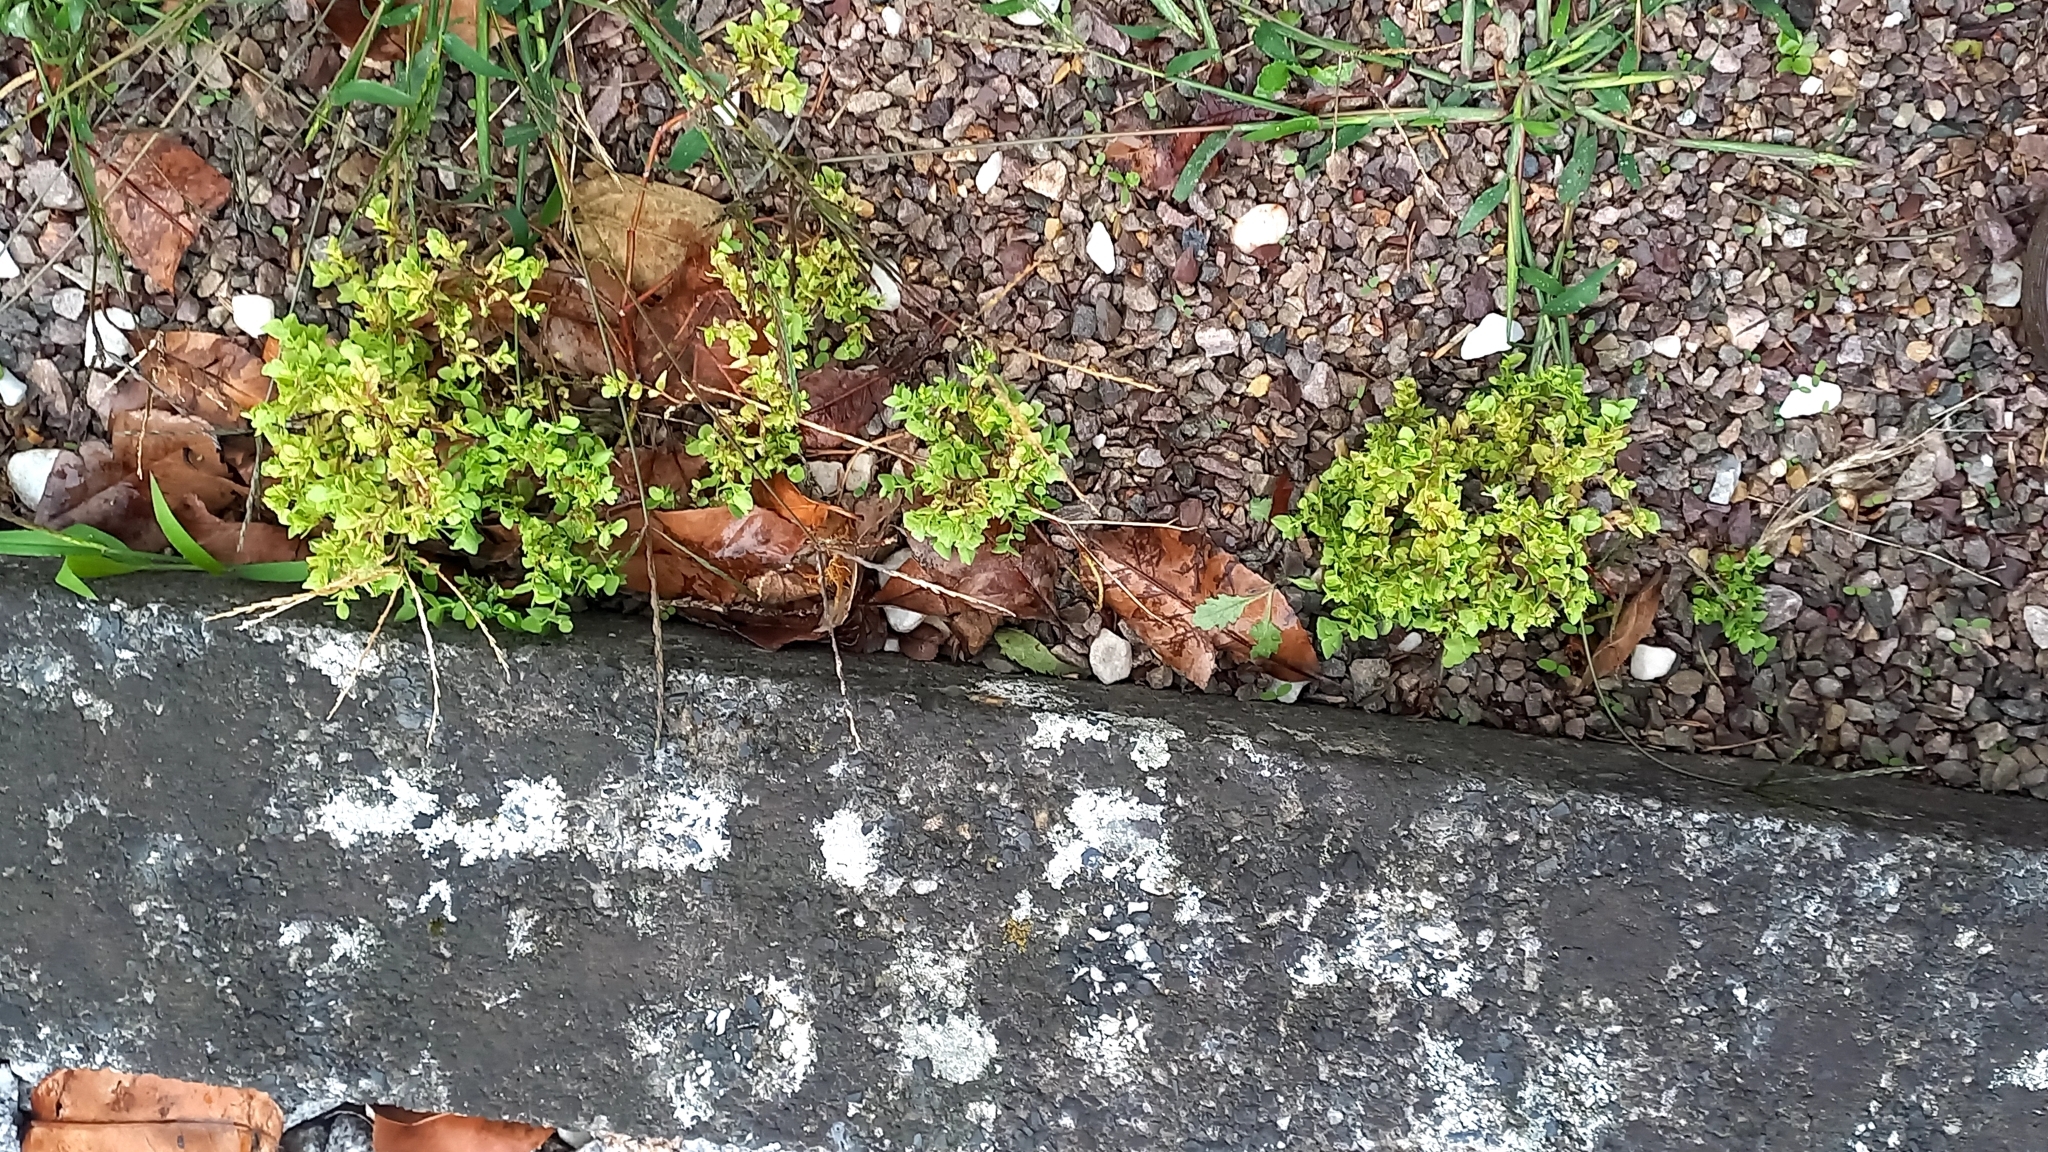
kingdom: Plantae
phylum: Tracheophyta
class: Magnoliopsida
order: Malpighiales
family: Euphorbiaceae
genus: Euphorbia
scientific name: Euphorbia peplus
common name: Petty spurge
